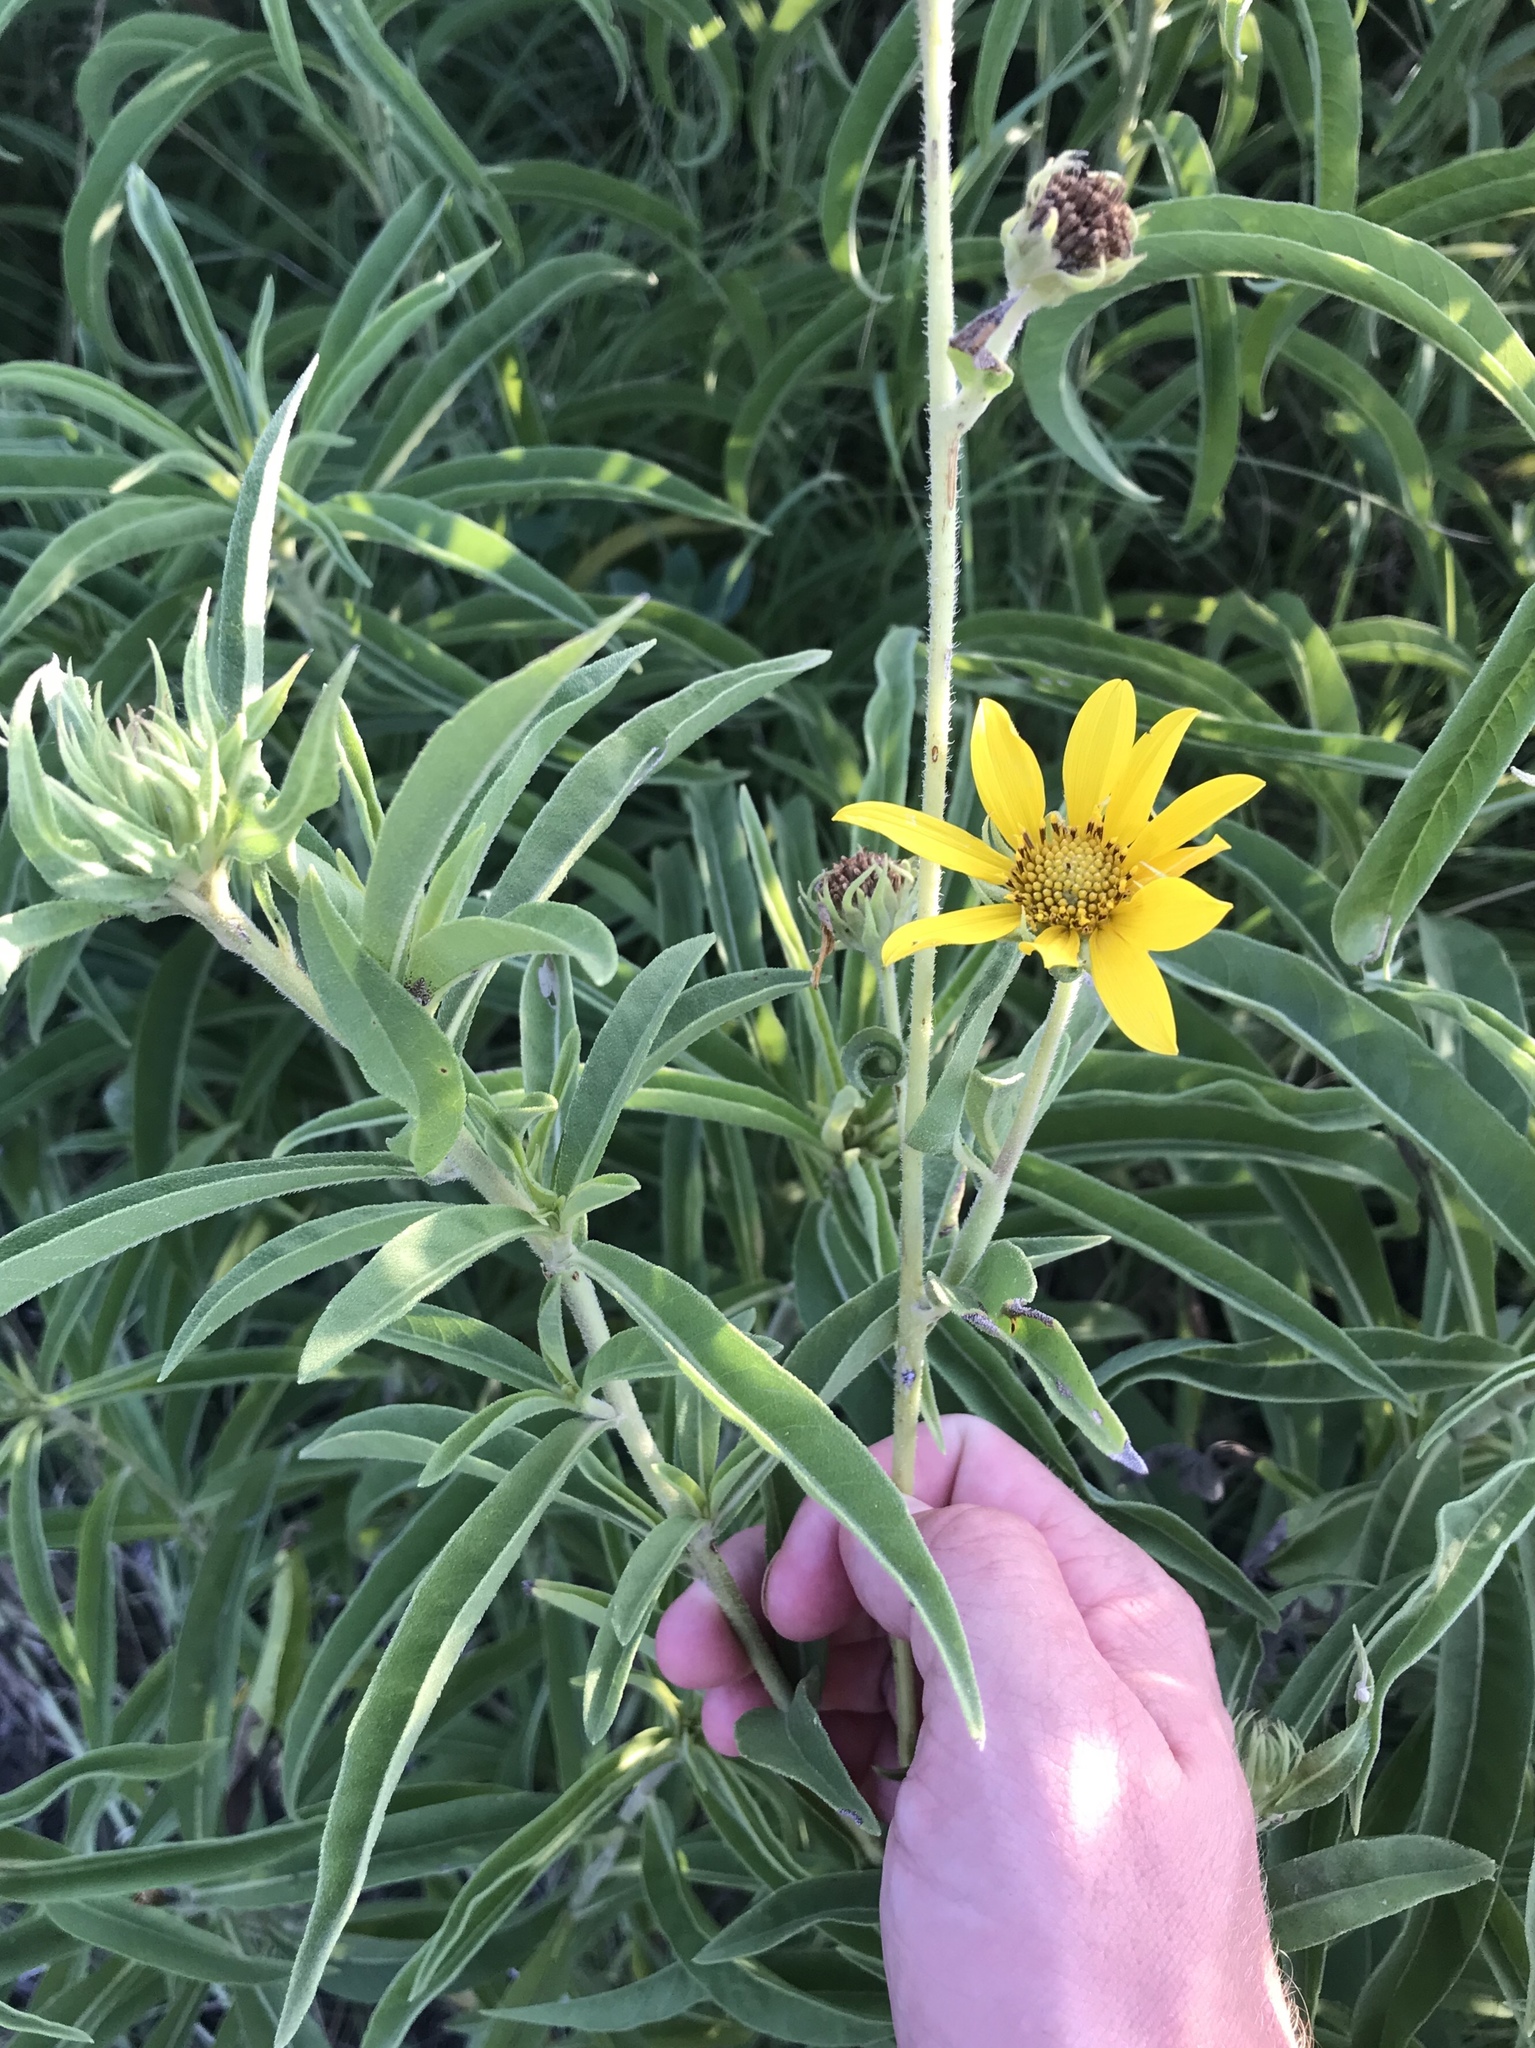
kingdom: Plantae
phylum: Tracheophyta
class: Magnoliopsida
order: Asterales
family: Asteraceae
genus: Helianthus
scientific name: Helianthus maximiliani
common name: Maximilian's sunflower
